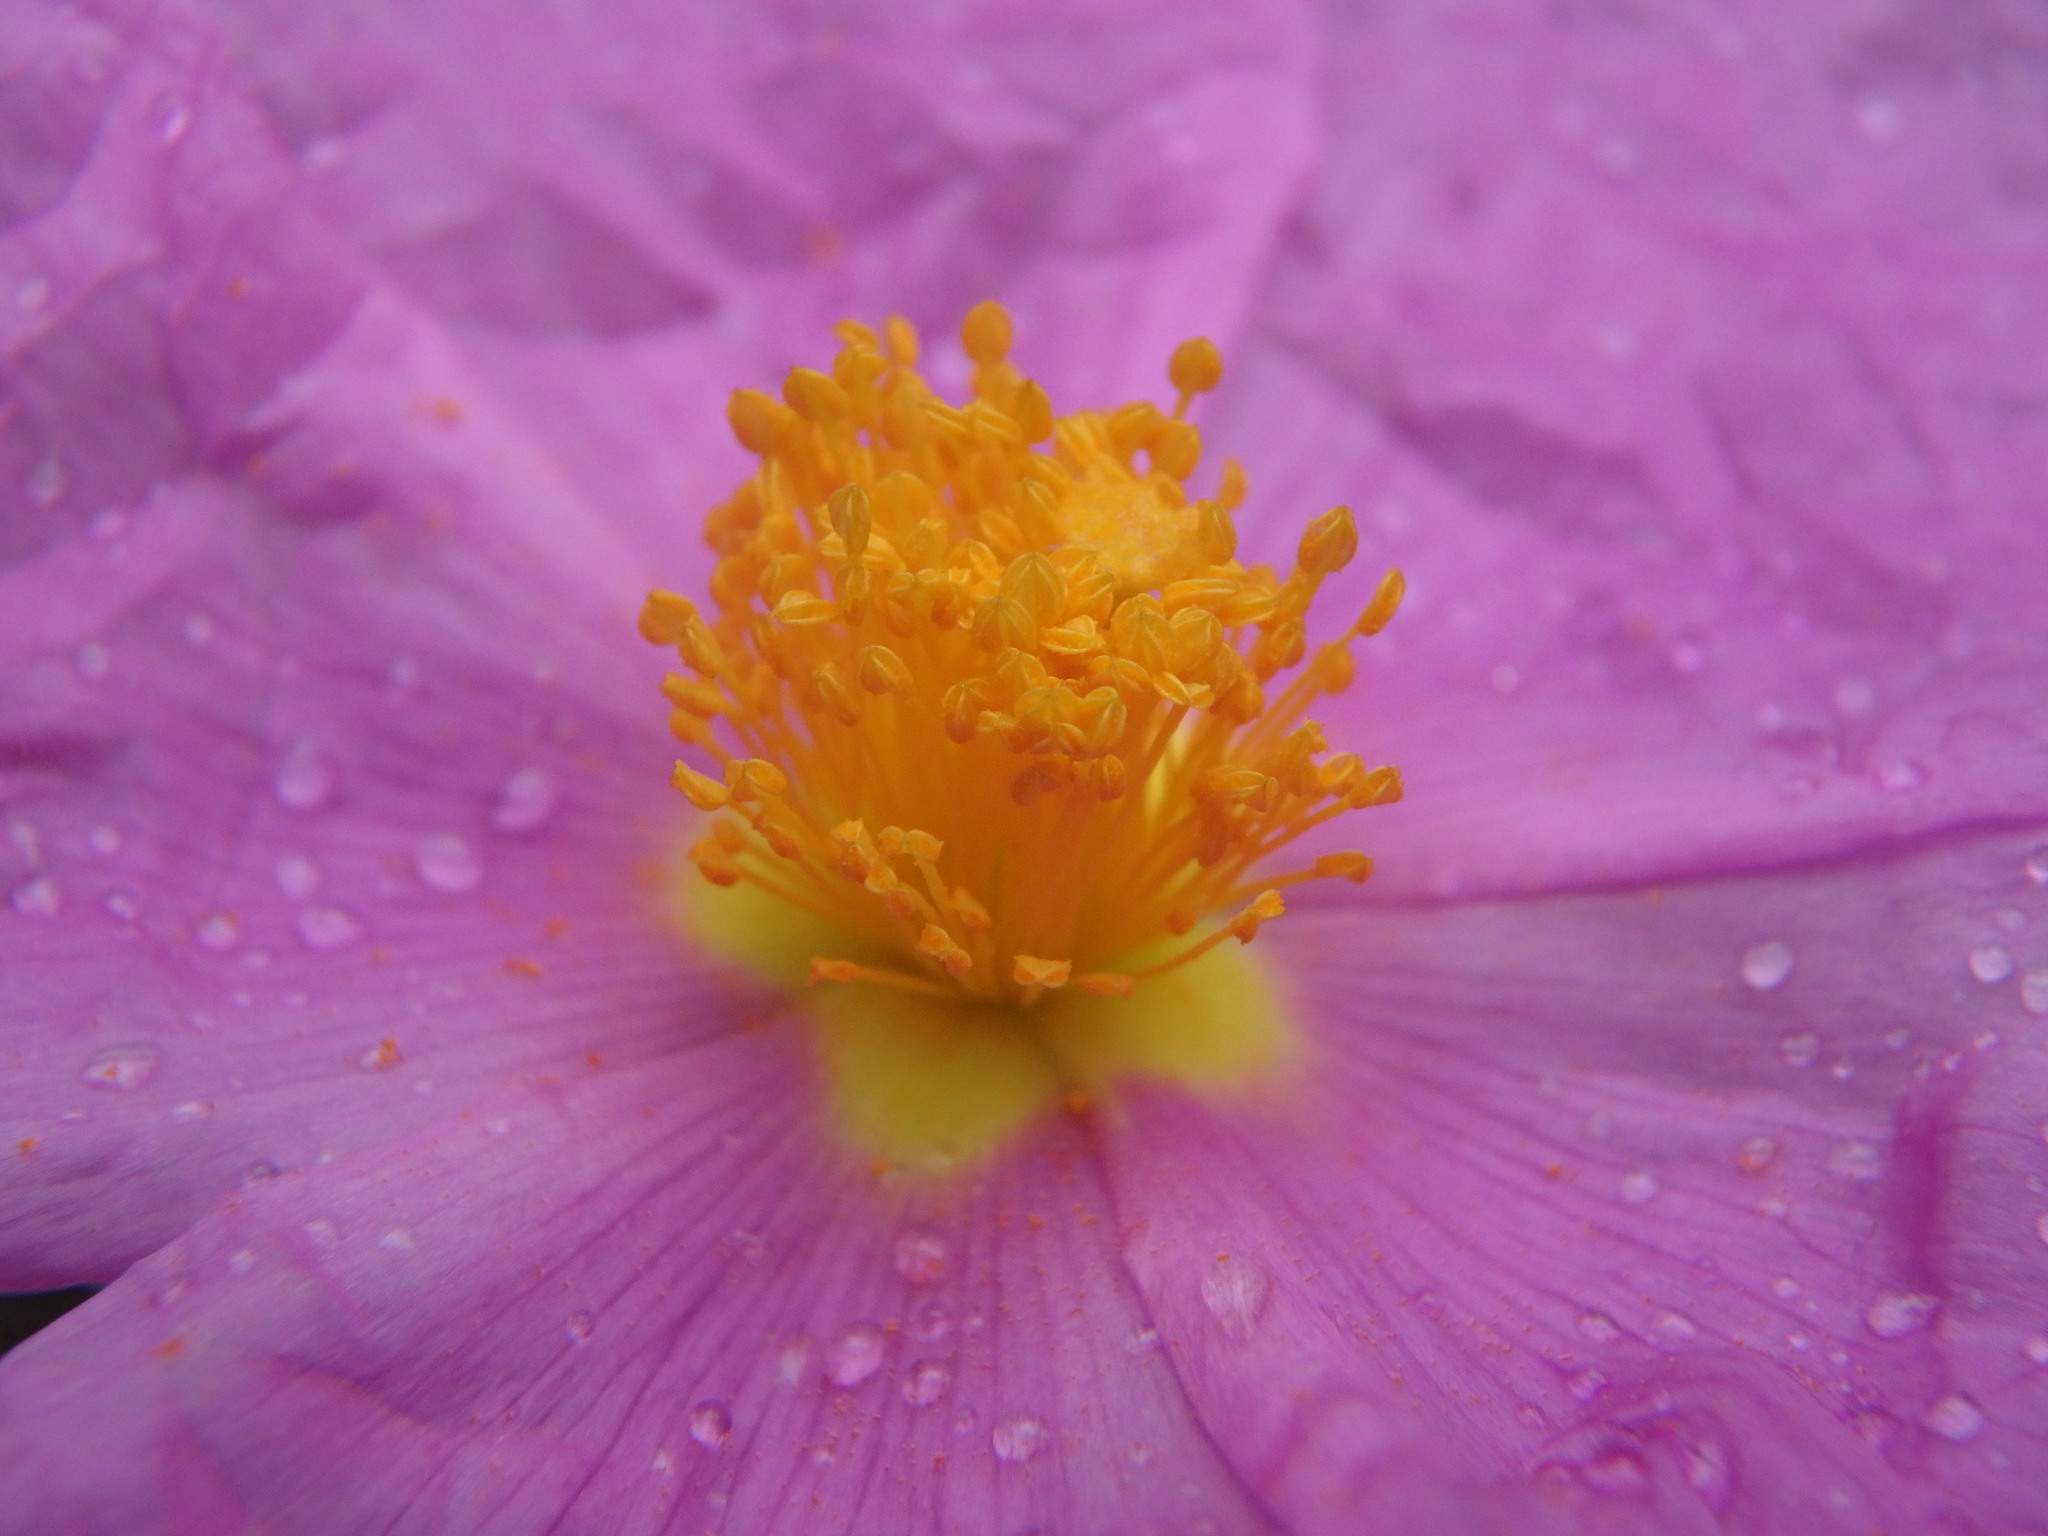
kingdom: Plantae
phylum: Tracheophyta
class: Magnoliopsida
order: Malvales
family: Cistaceae
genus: Cistus
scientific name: Cistus albidus
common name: White-leaf rock-rose
